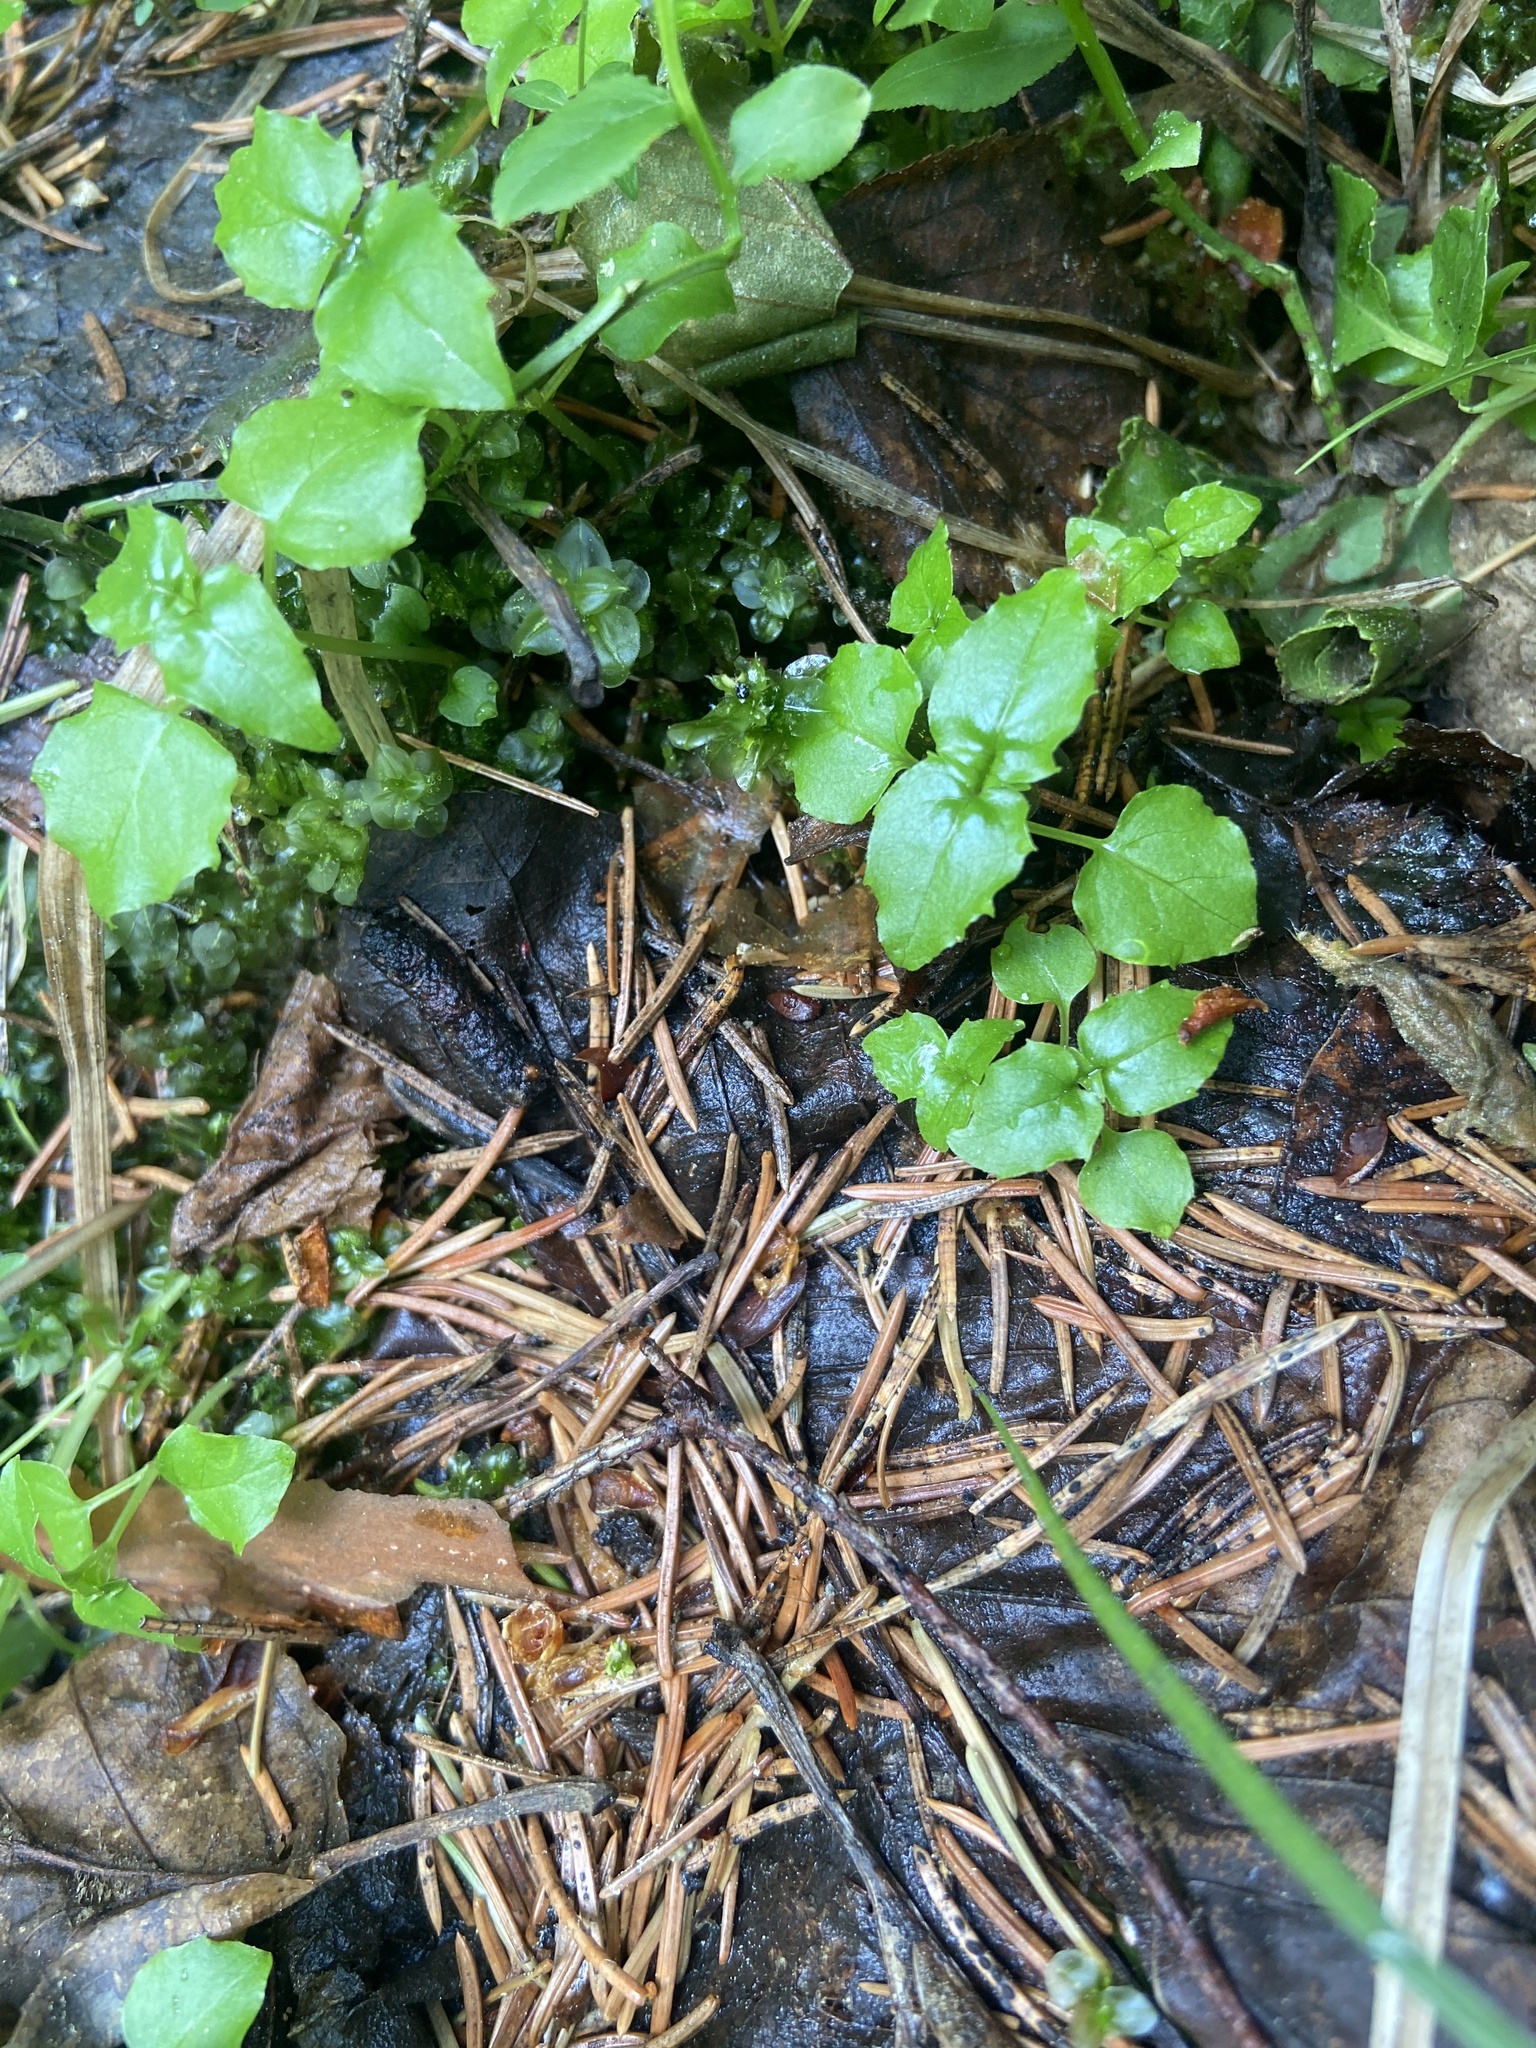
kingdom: Plantae
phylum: Tracheophyta
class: Magnoliopsida
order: Myrtales
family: Onagraceae
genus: Circaea
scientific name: Circaea alpina
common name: Alpine enchanter's-nightshade
